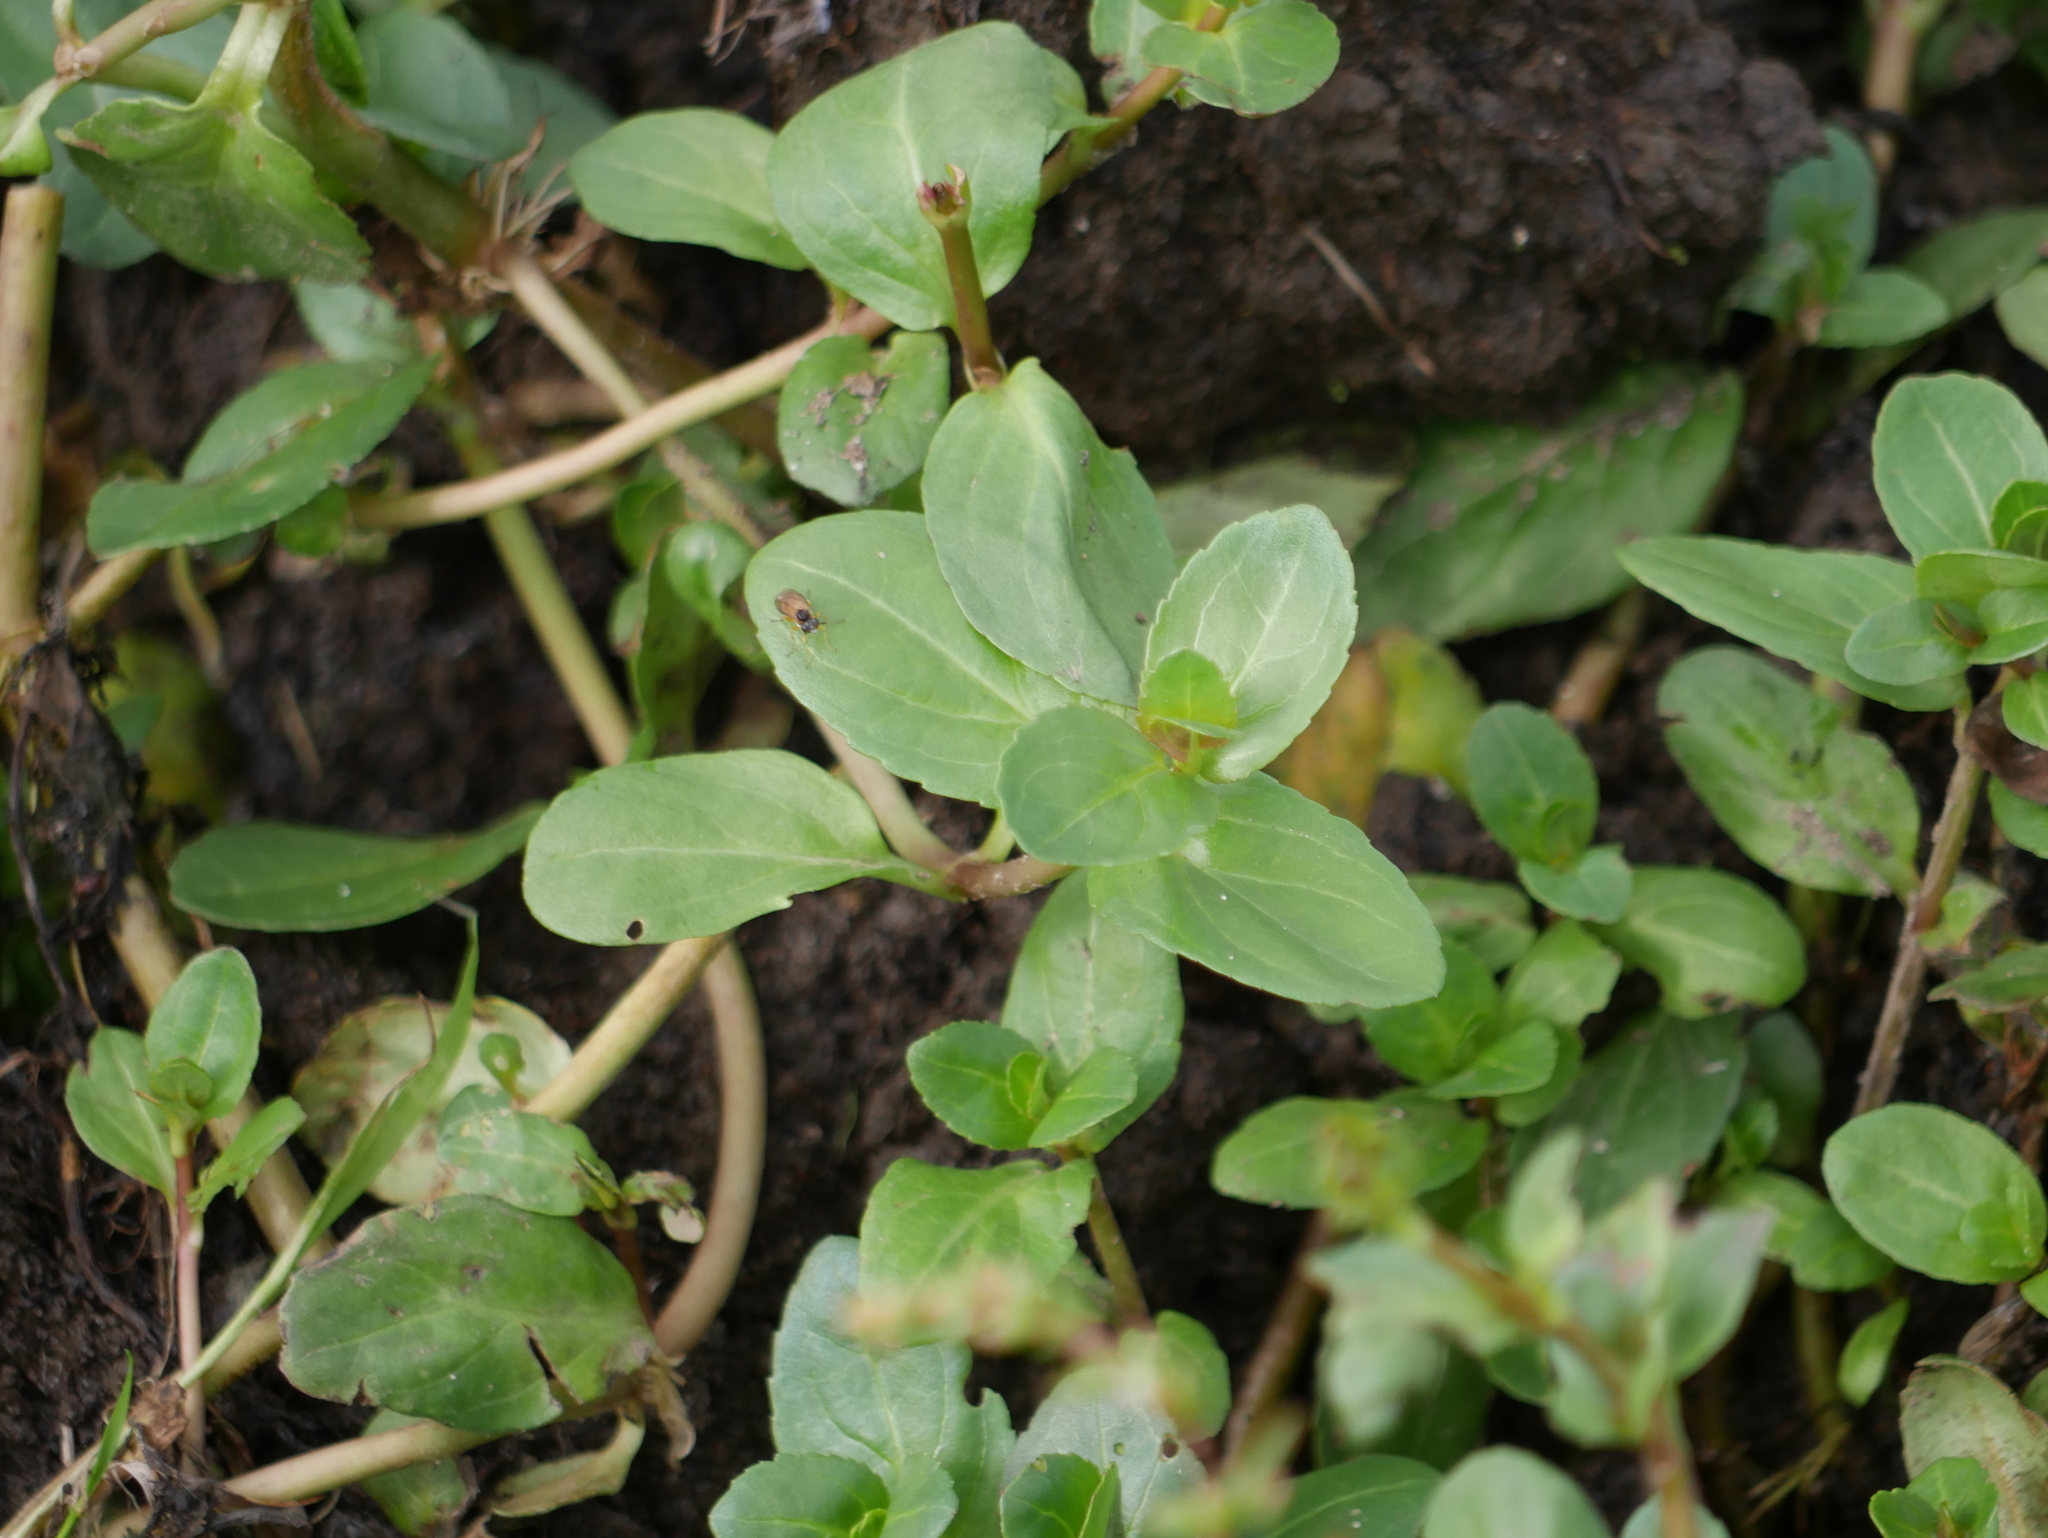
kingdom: Plantae
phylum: Tracheophyta
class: Magnoliopsida
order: Lamiales
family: Plantaginaceae
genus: Veronica
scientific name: Veronica beccabunga
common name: Brooklime
